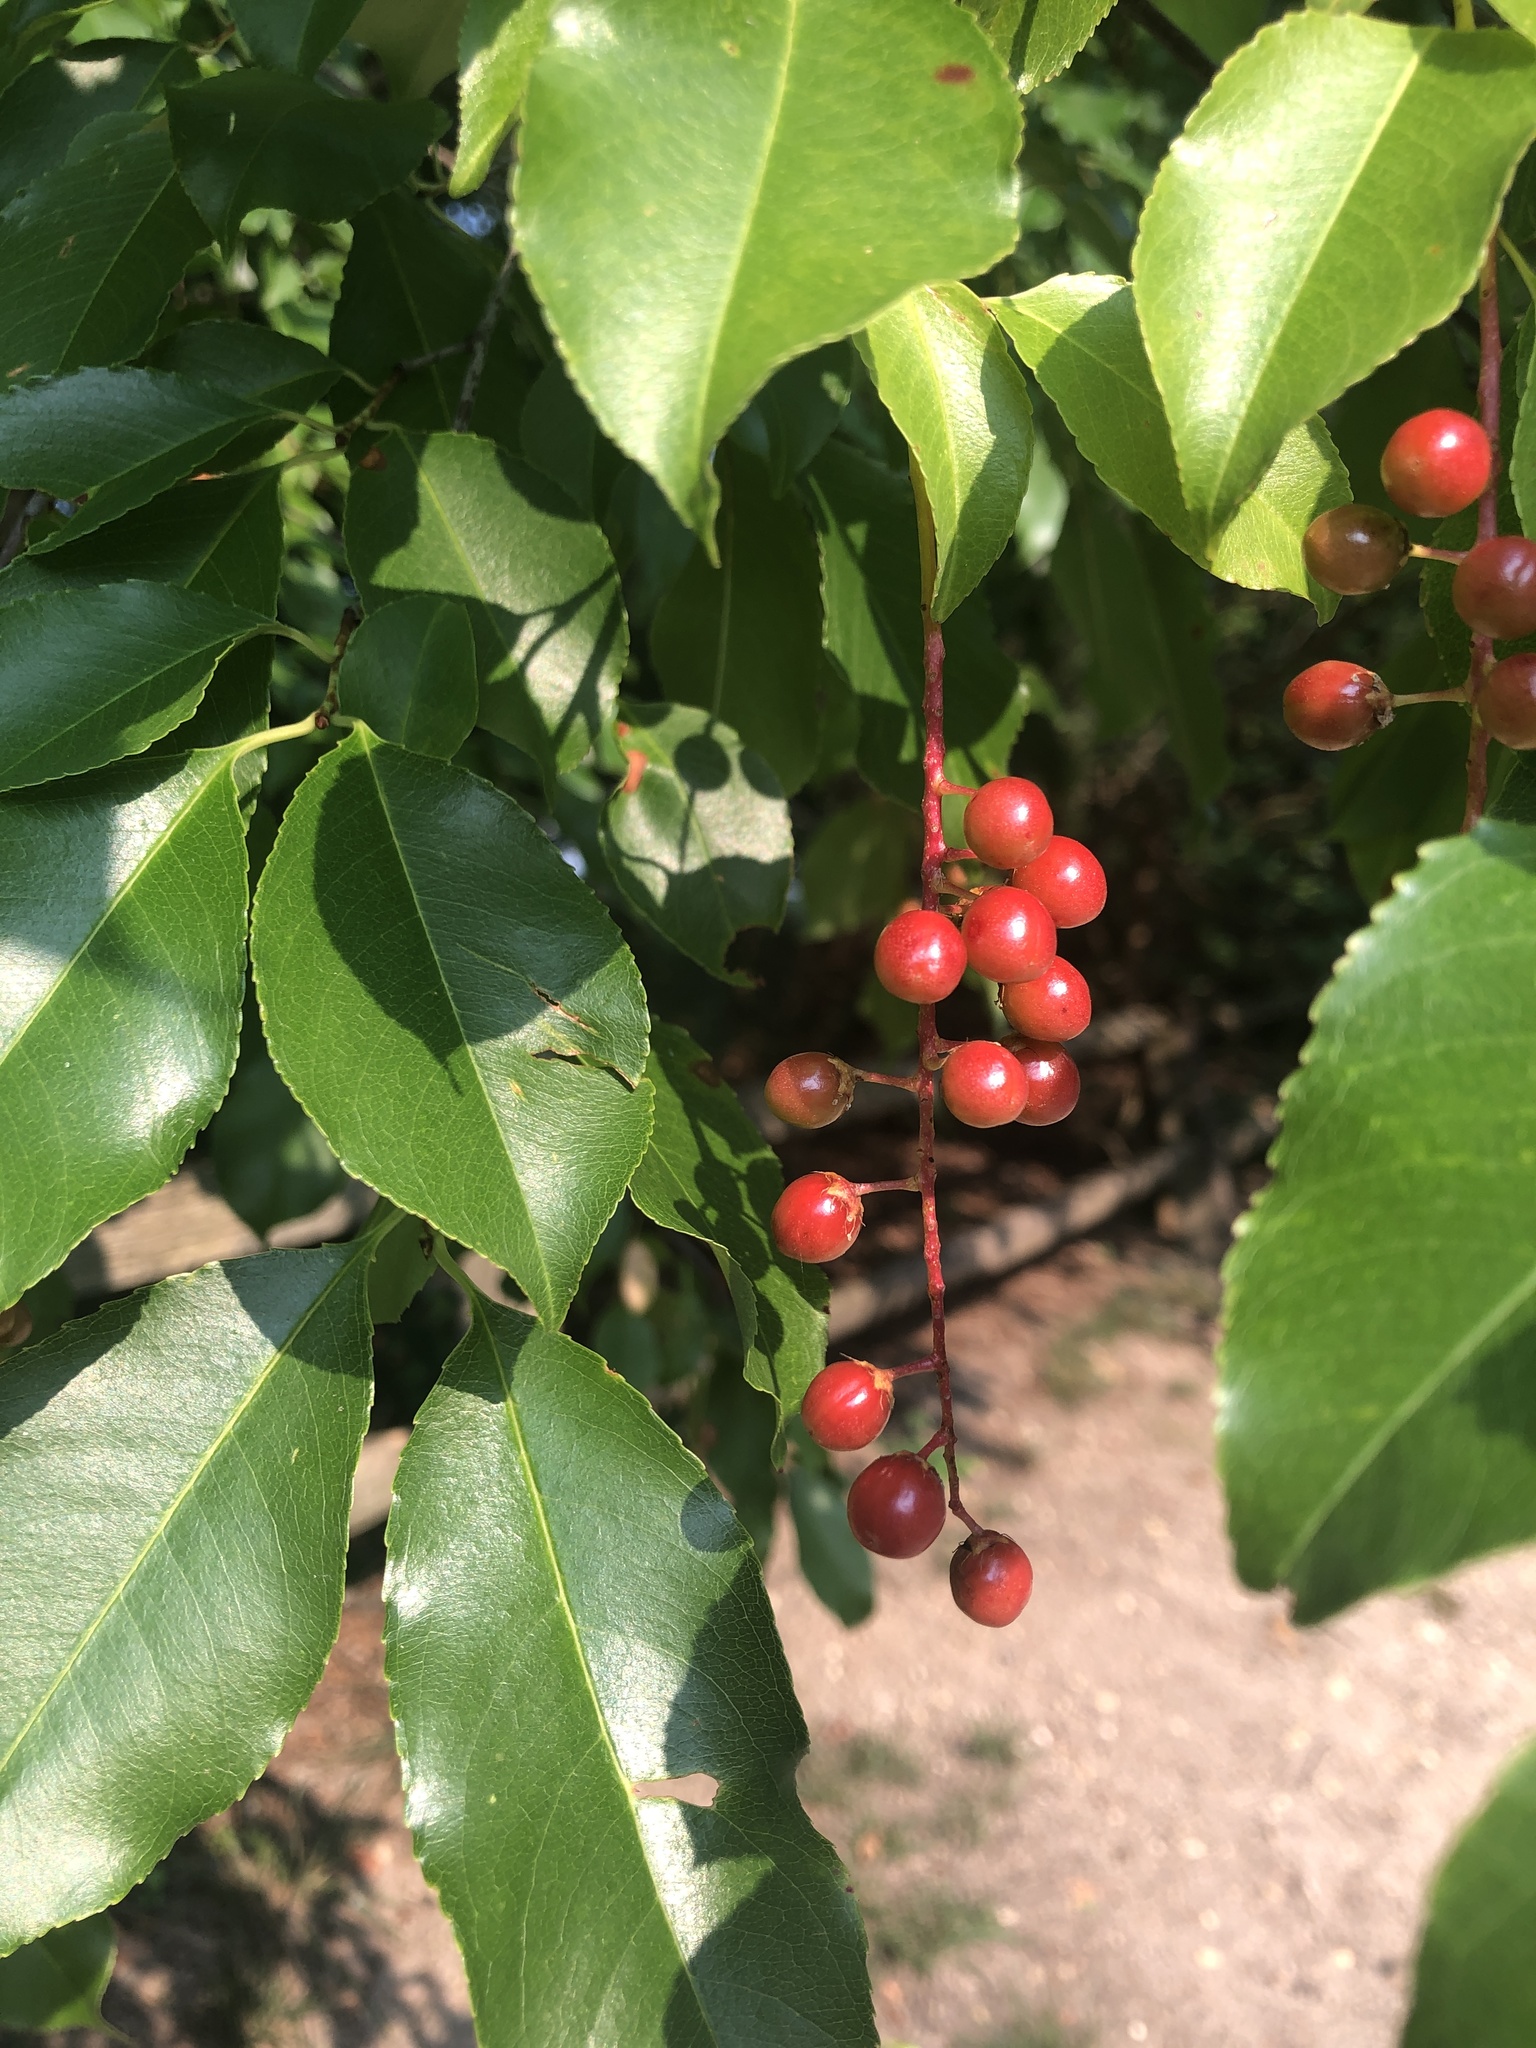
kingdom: Plantae
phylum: Tracheophyta
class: Magnoliopsida
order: Rosales
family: Rosaceae
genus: Prunus
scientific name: Prunus serotina
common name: Black cherry
